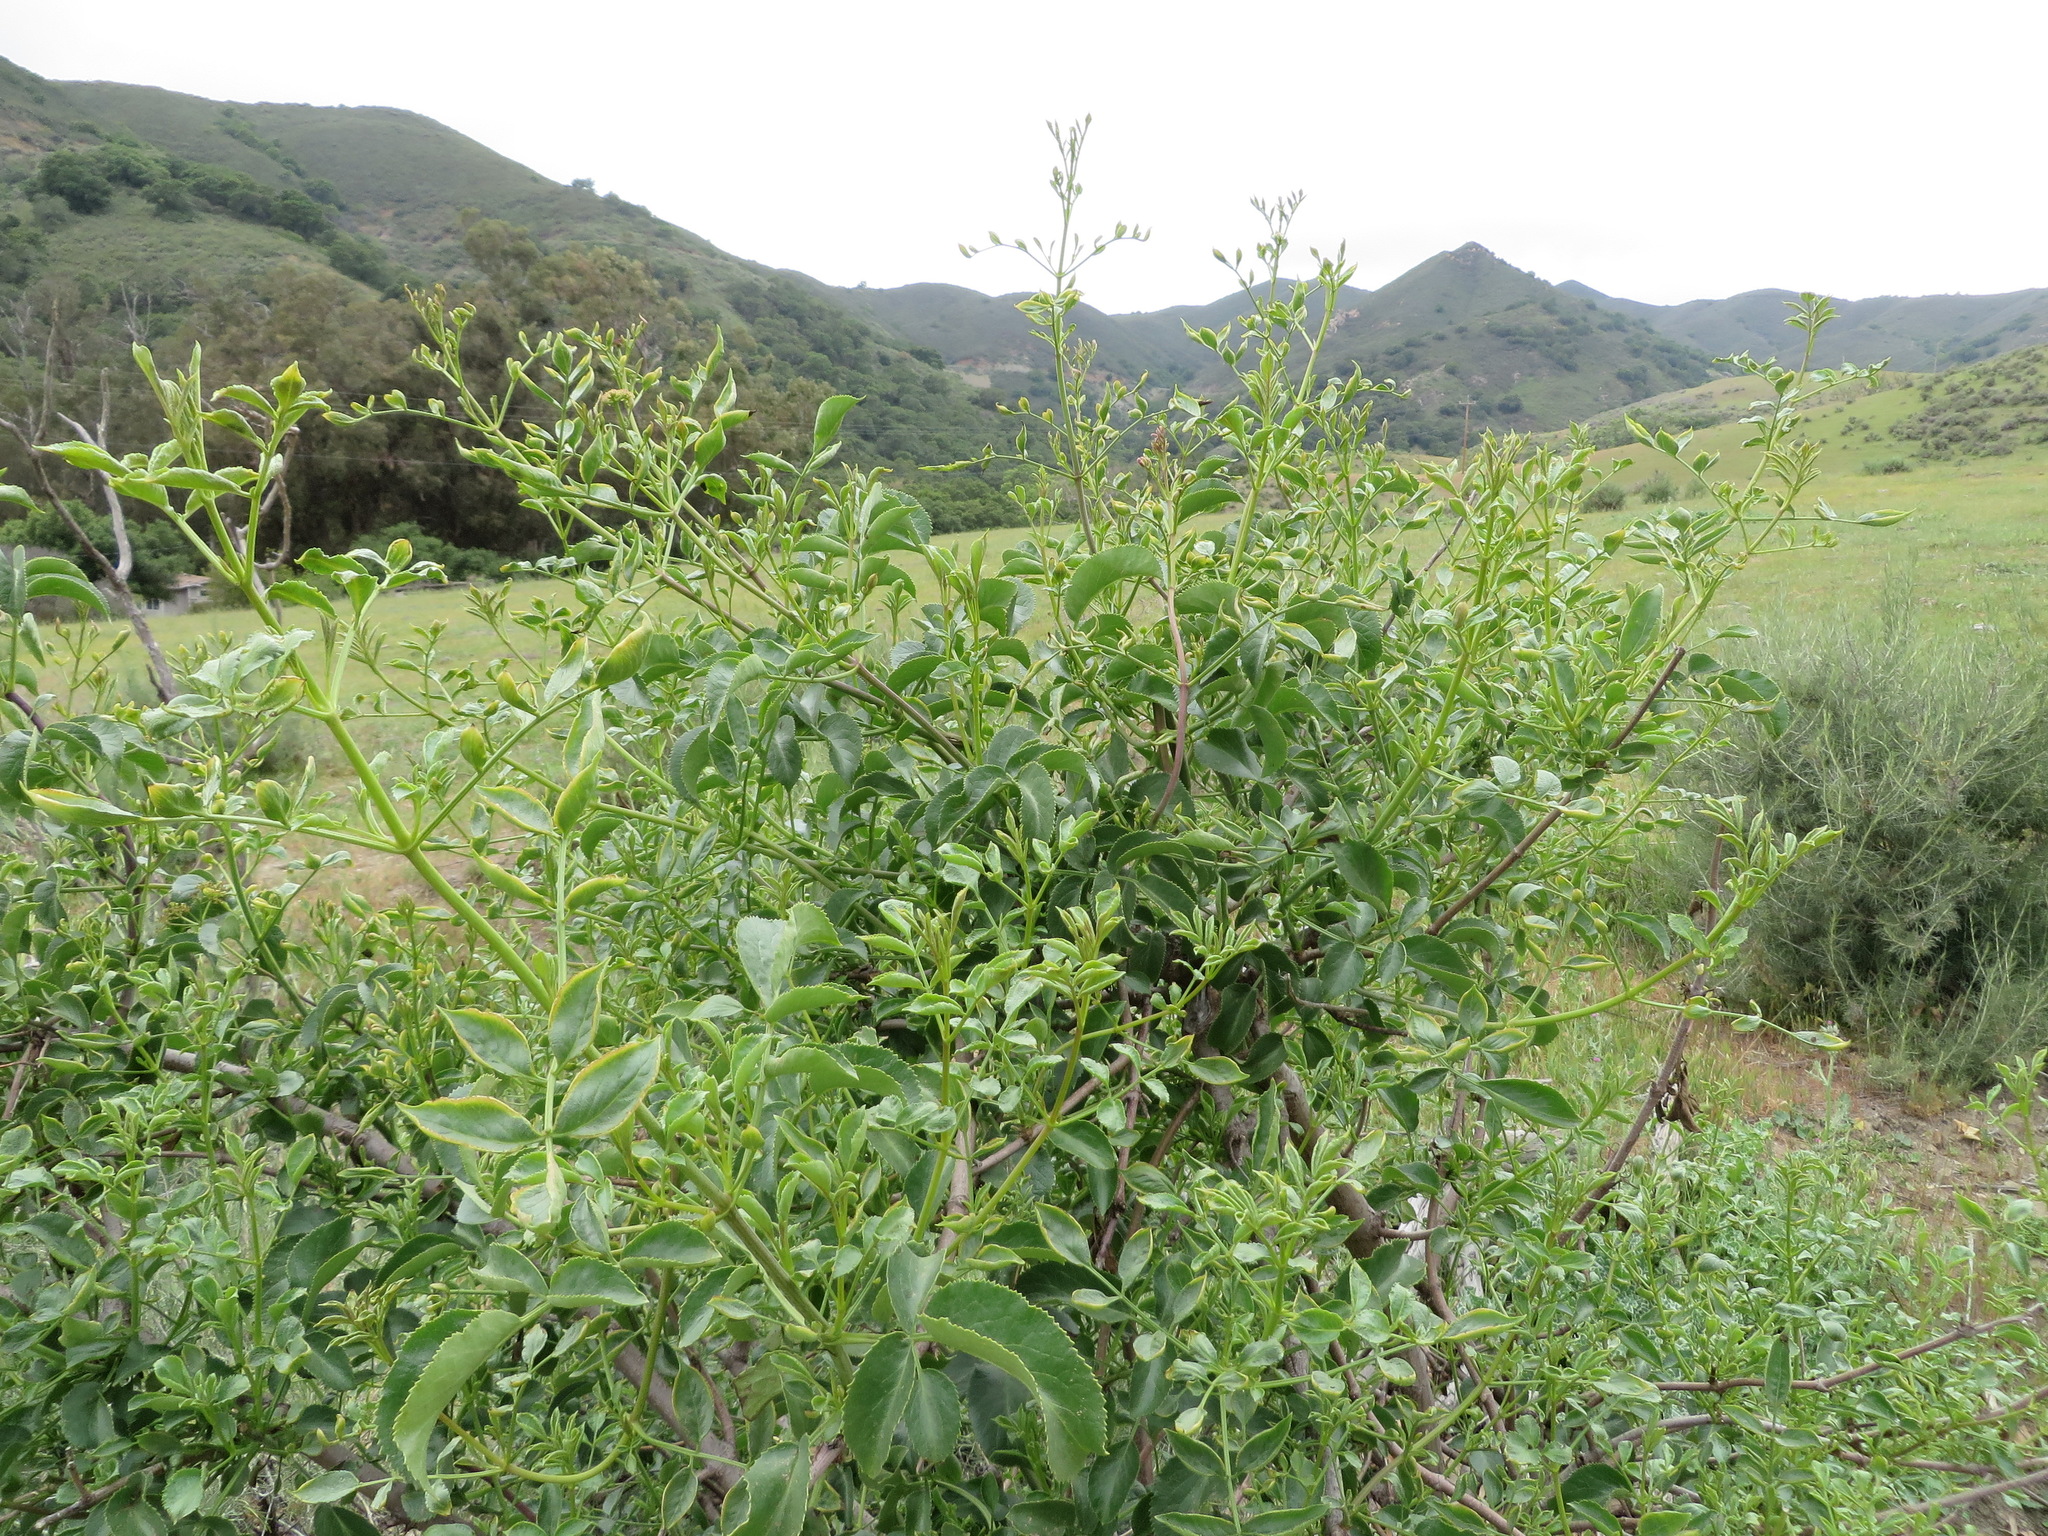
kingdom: Plantae
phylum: Tracheophyta
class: Magnoliopsida
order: Dipsacales
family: Viburnaceae
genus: Sambucus
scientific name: Sambucus cerulea
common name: Blue elder
